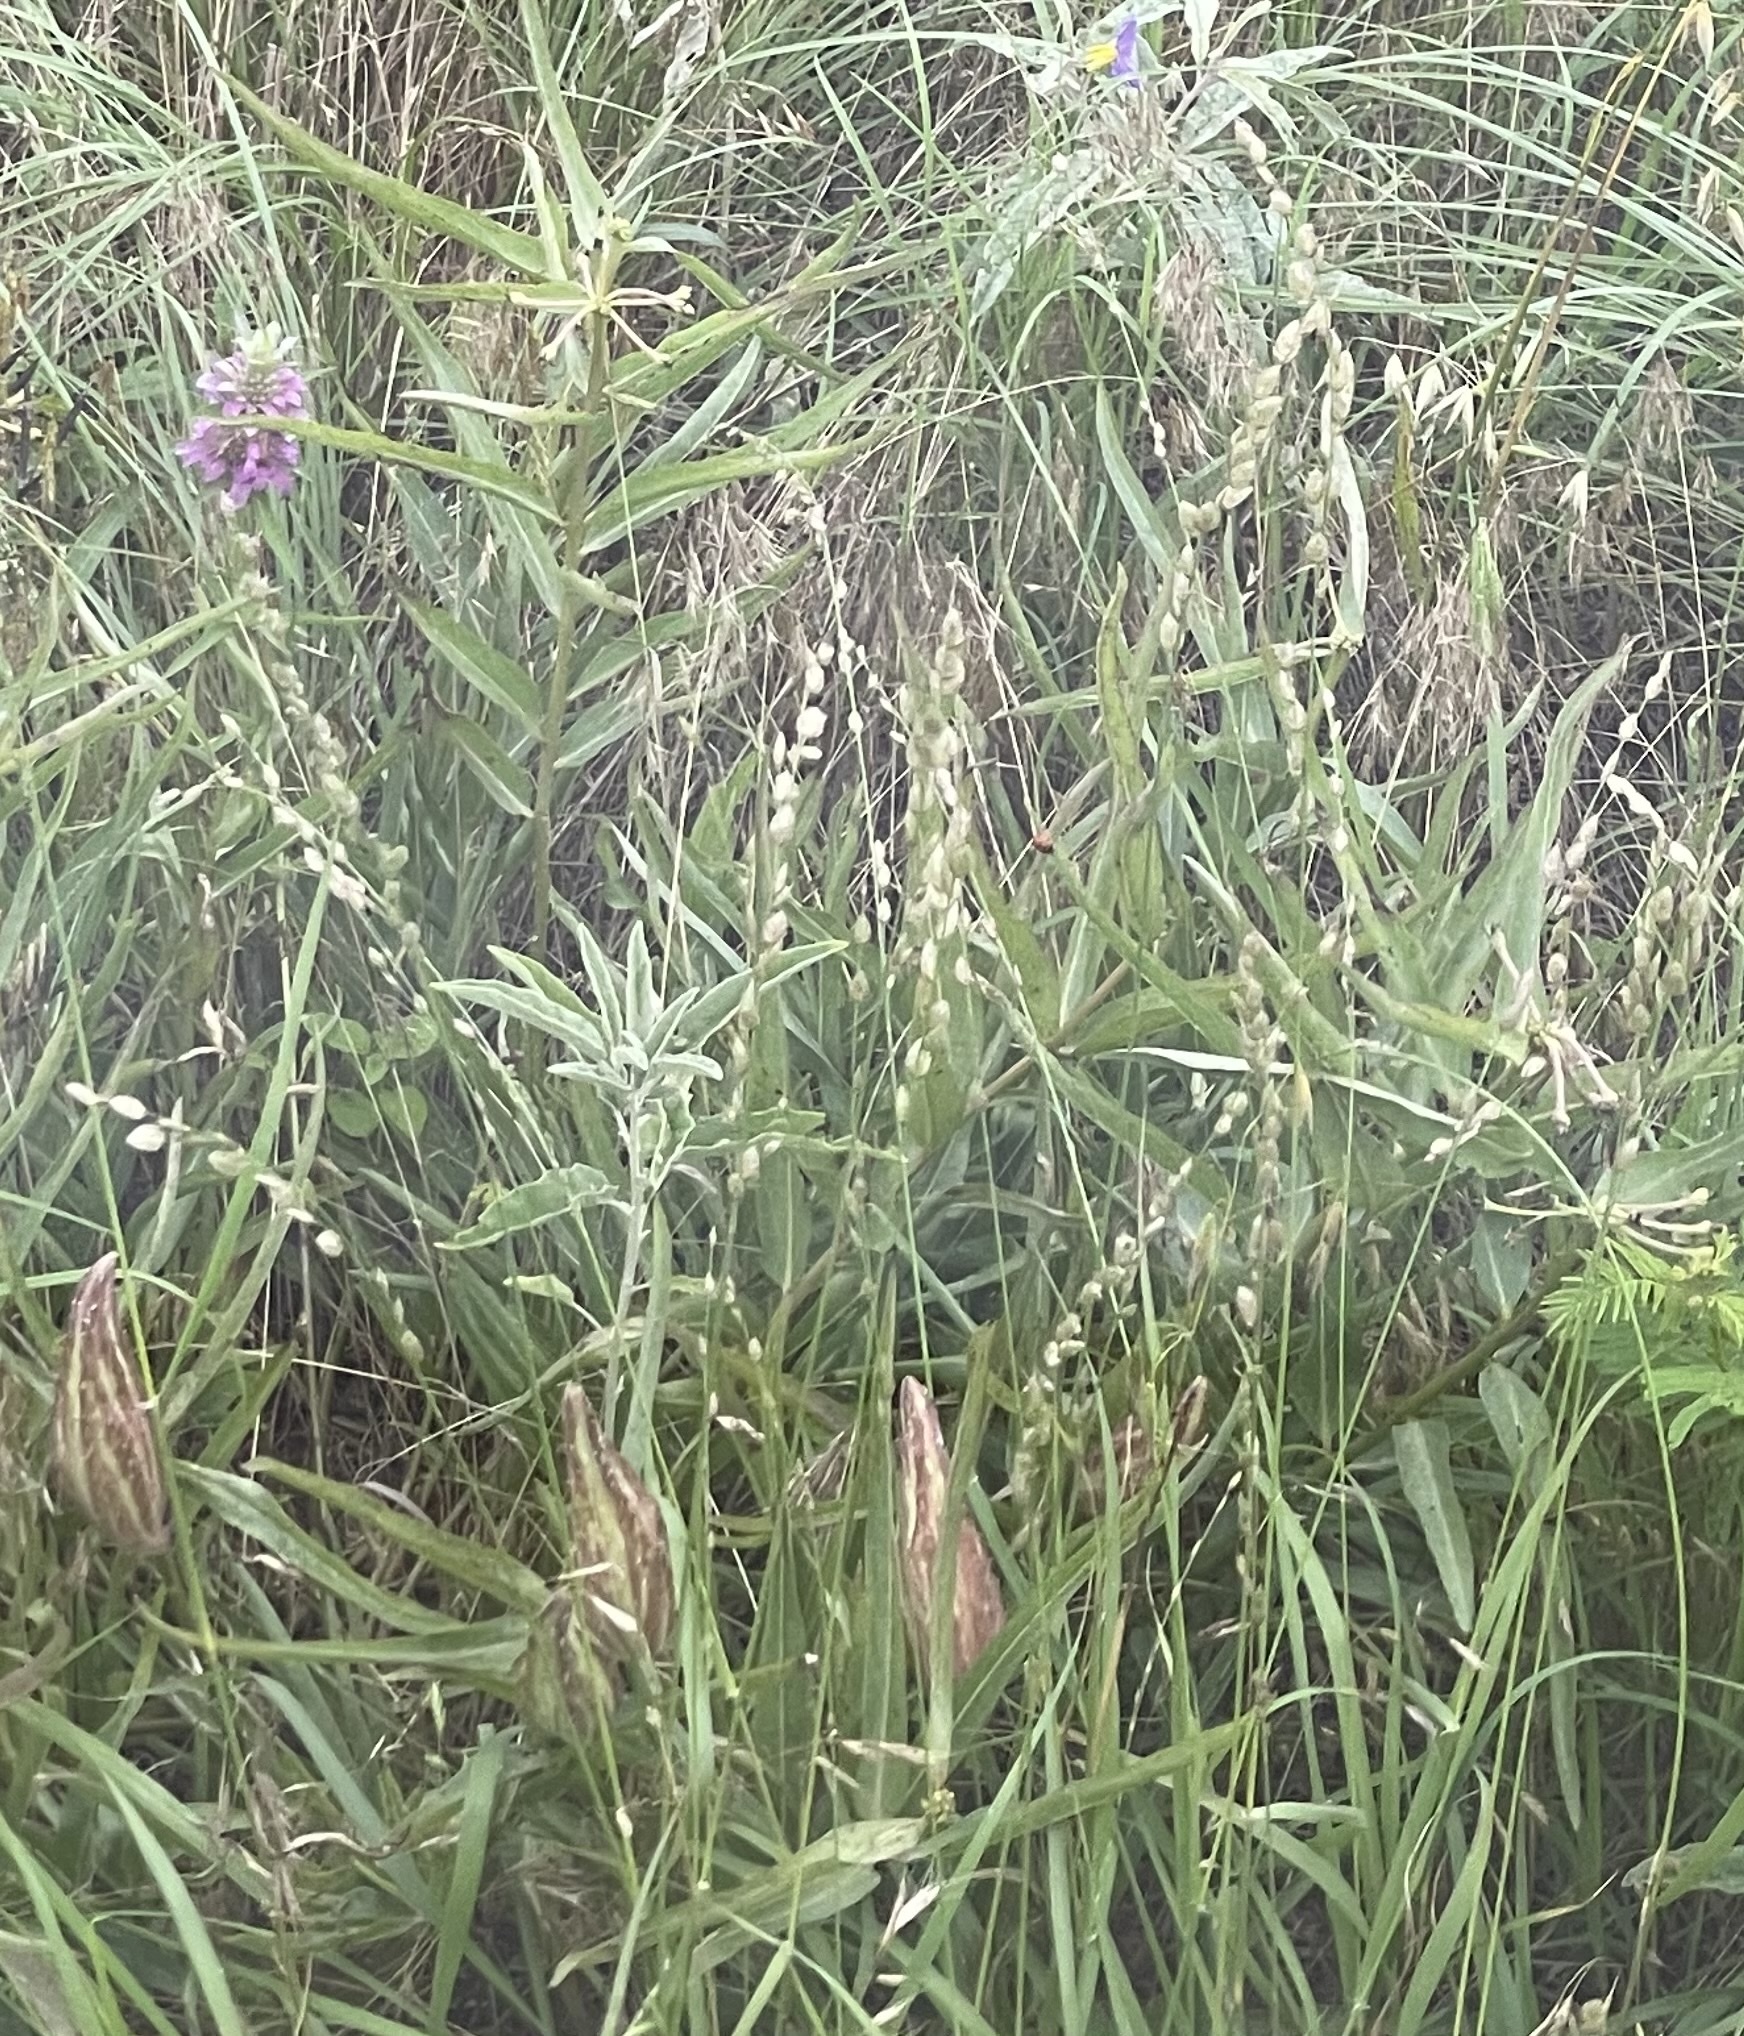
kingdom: Plantae
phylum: Tracheophyta
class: Liliopsida
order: Poales
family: Poaceae
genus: Eragrostis
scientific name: Eragrostis superba
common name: Wilman lovegrass
